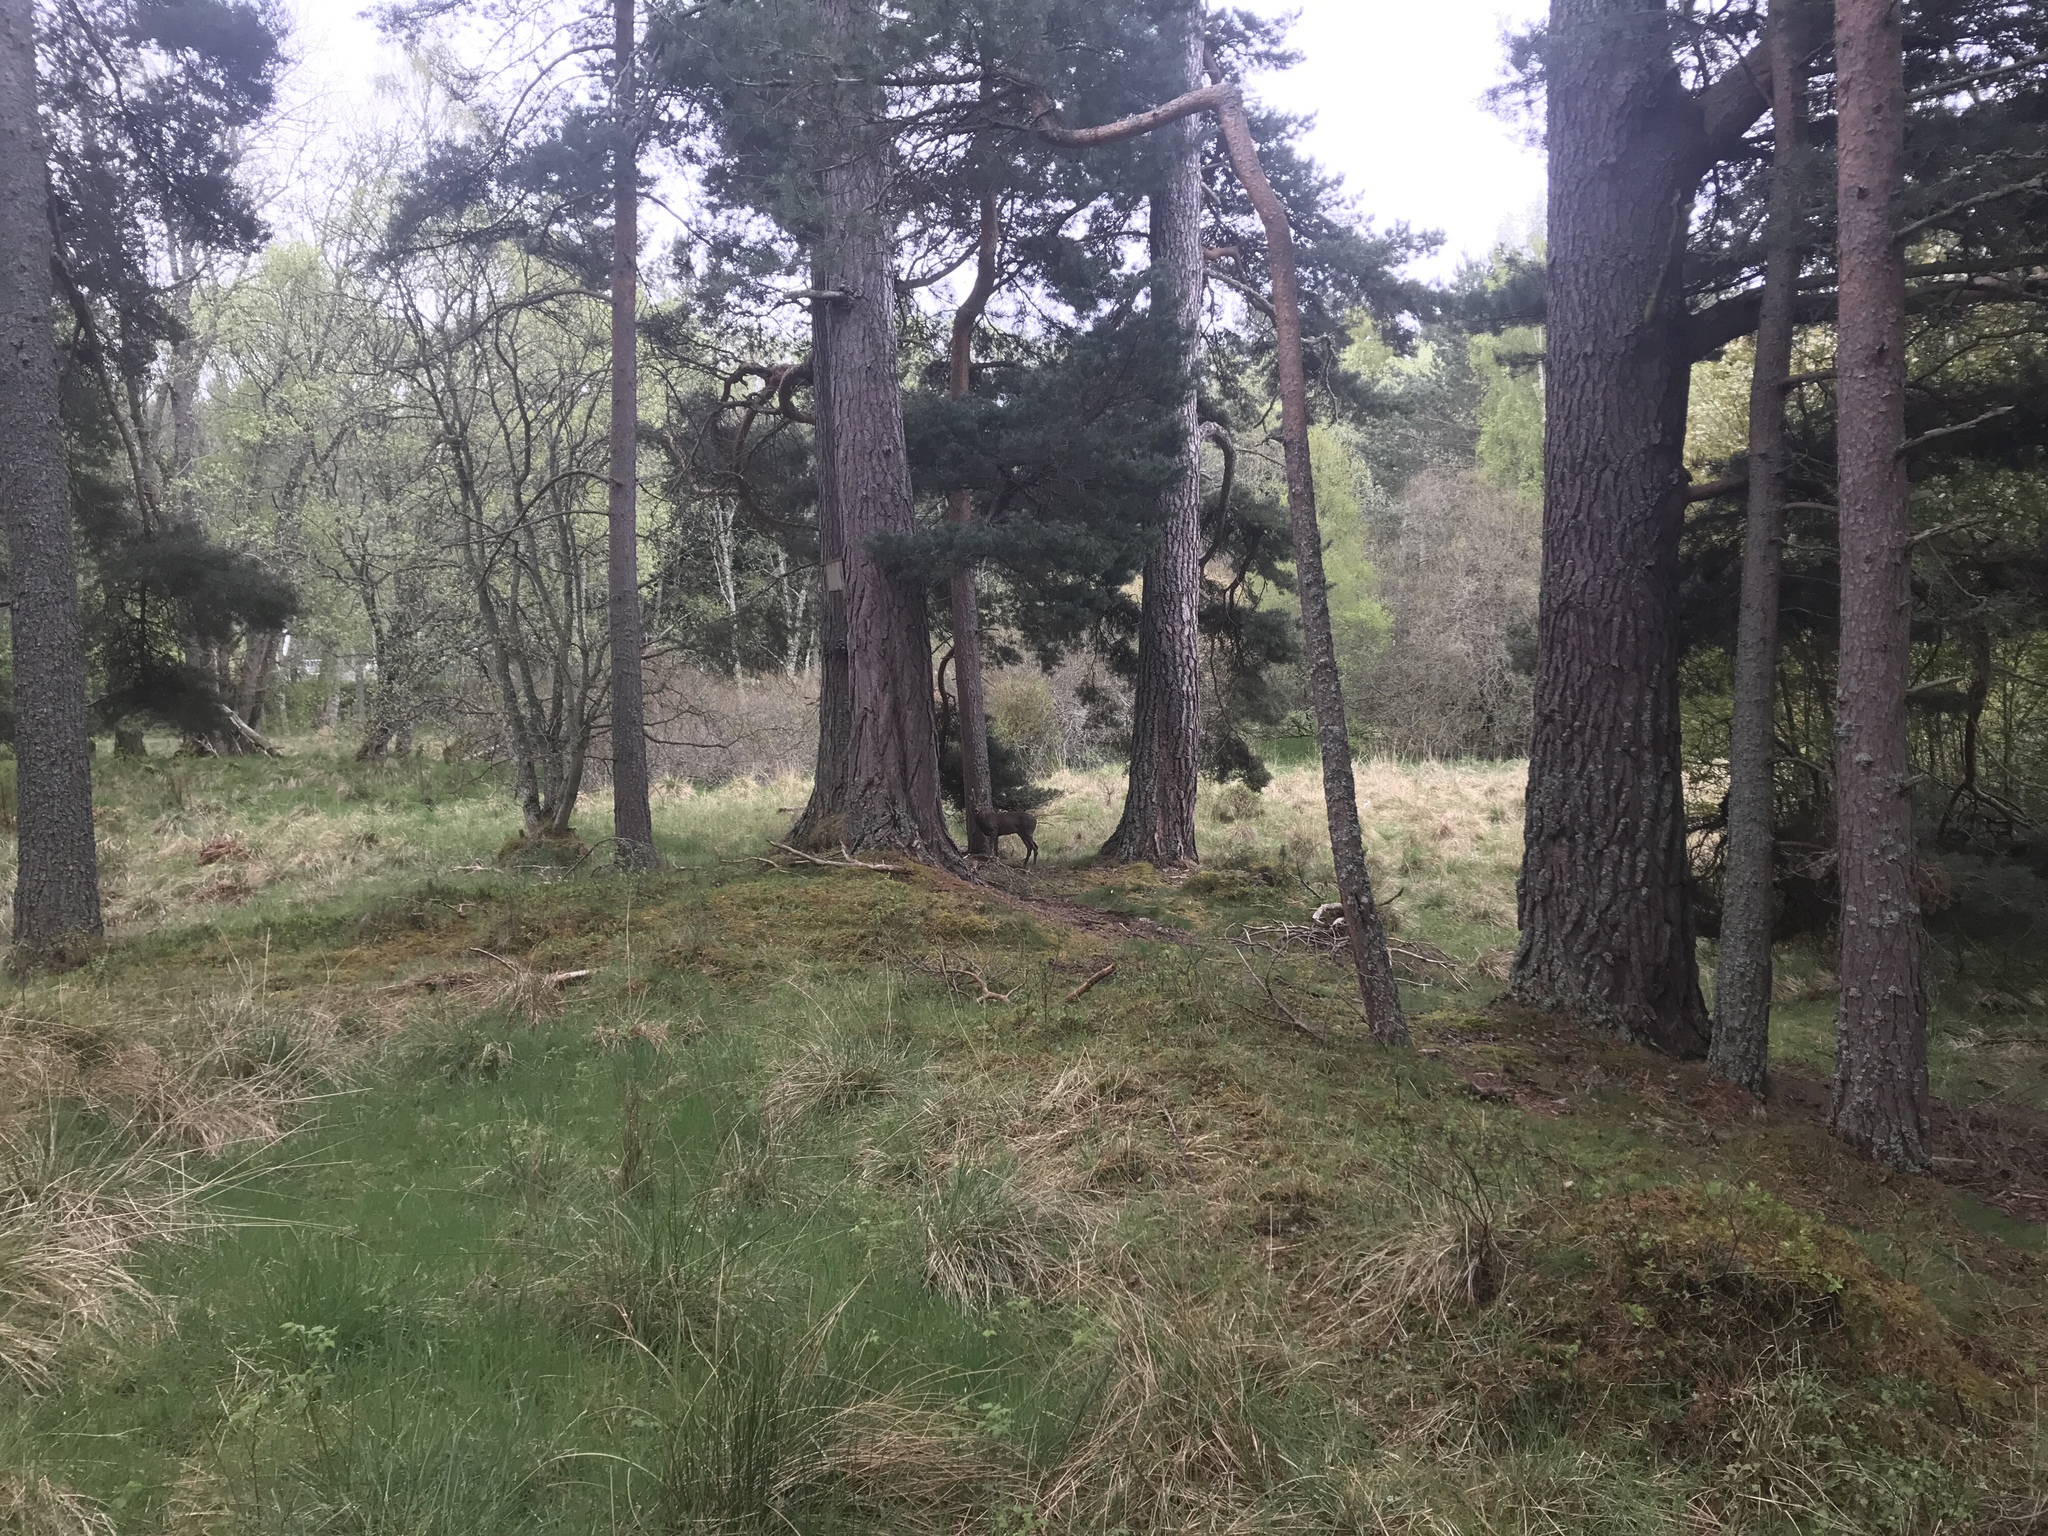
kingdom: Animalia
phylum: Chordata
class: Mammalia
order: Artiodactyla
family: Cervidae
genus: Capreolus
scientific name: Capreolus capreolus
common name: Western roe deer
